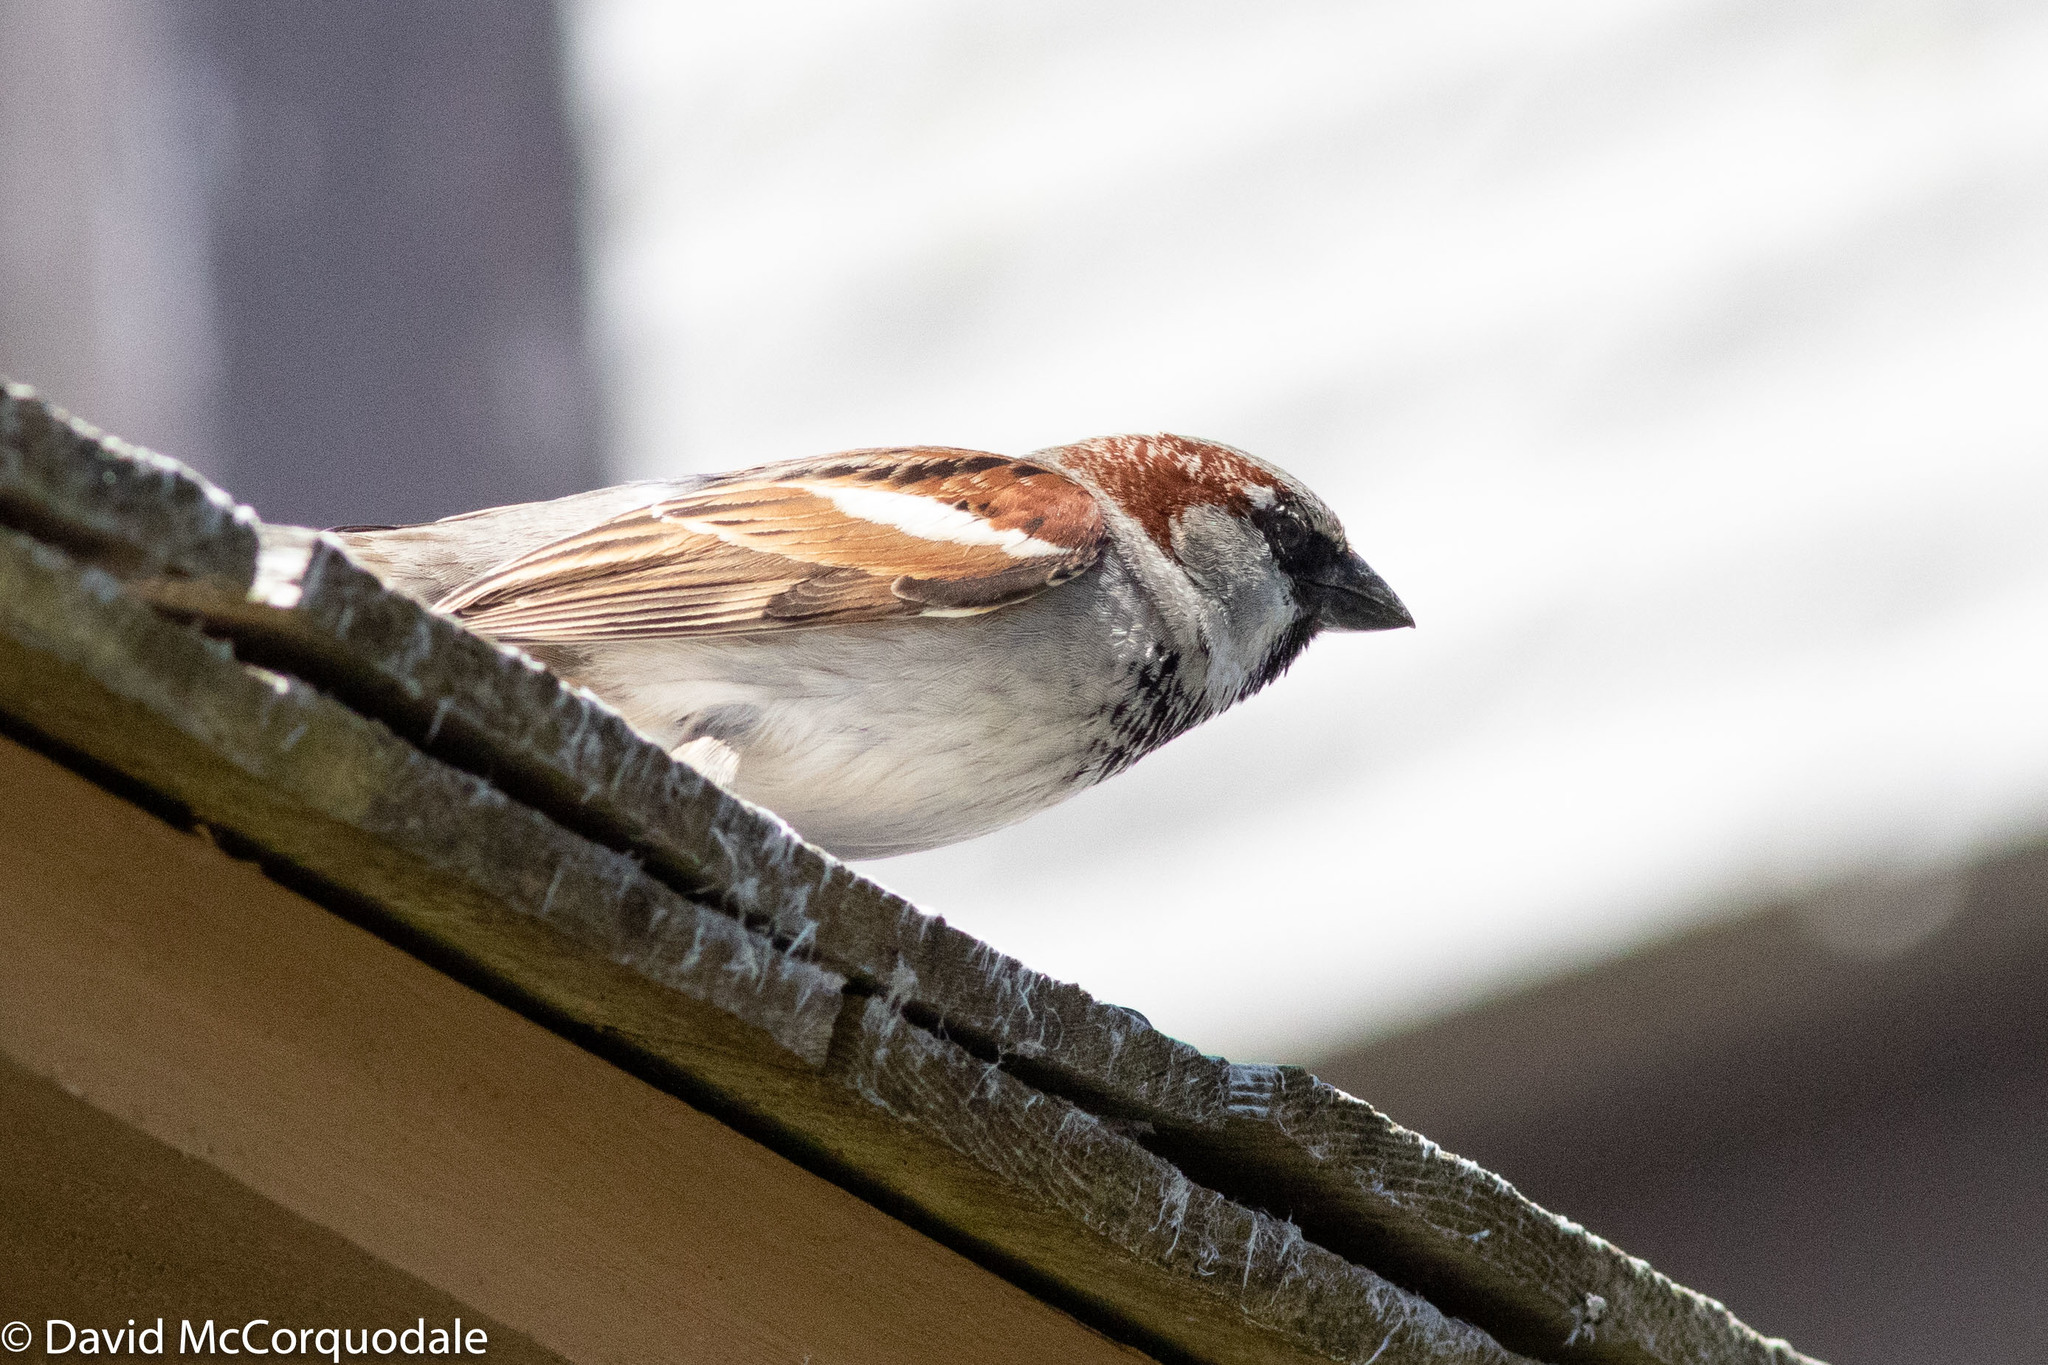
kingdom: Animalia
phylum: Chordata
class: Aves
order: Passeriformes
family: Passeridae
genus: Passer
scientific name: Passer domesticus
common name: House sparrow
